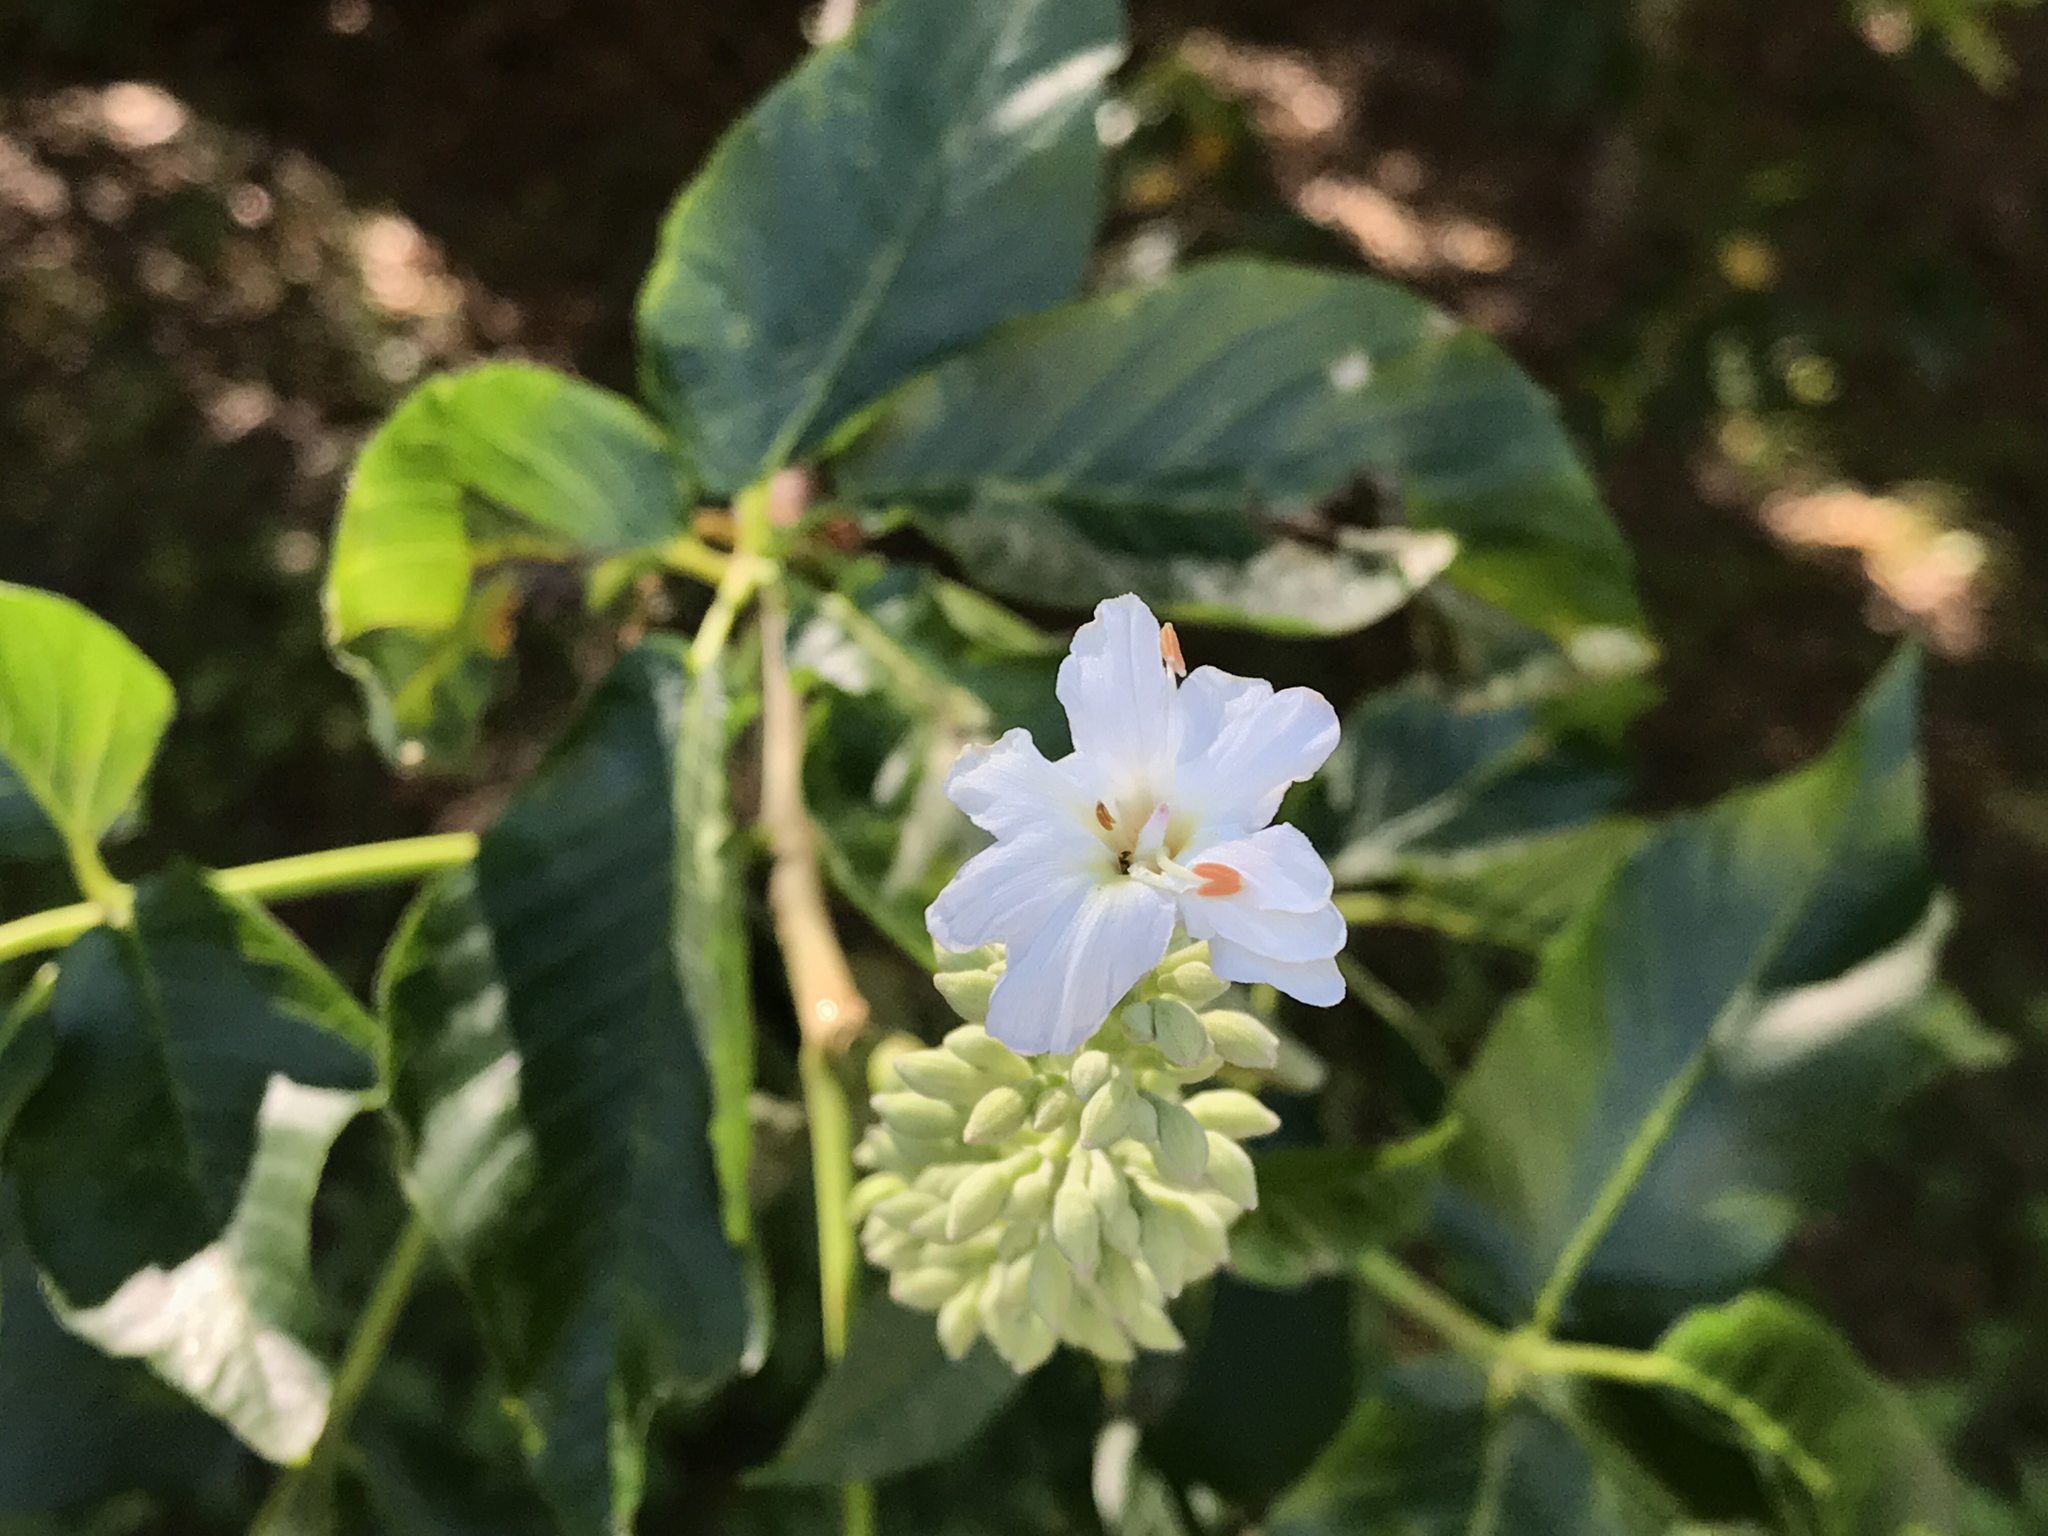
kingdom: Plantae
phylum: Tracheophyta
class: Magnoliopsida
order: Sapindales
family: Sapindaceae
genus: Aesculus
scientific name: Aesculus californica
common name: California buckeye
